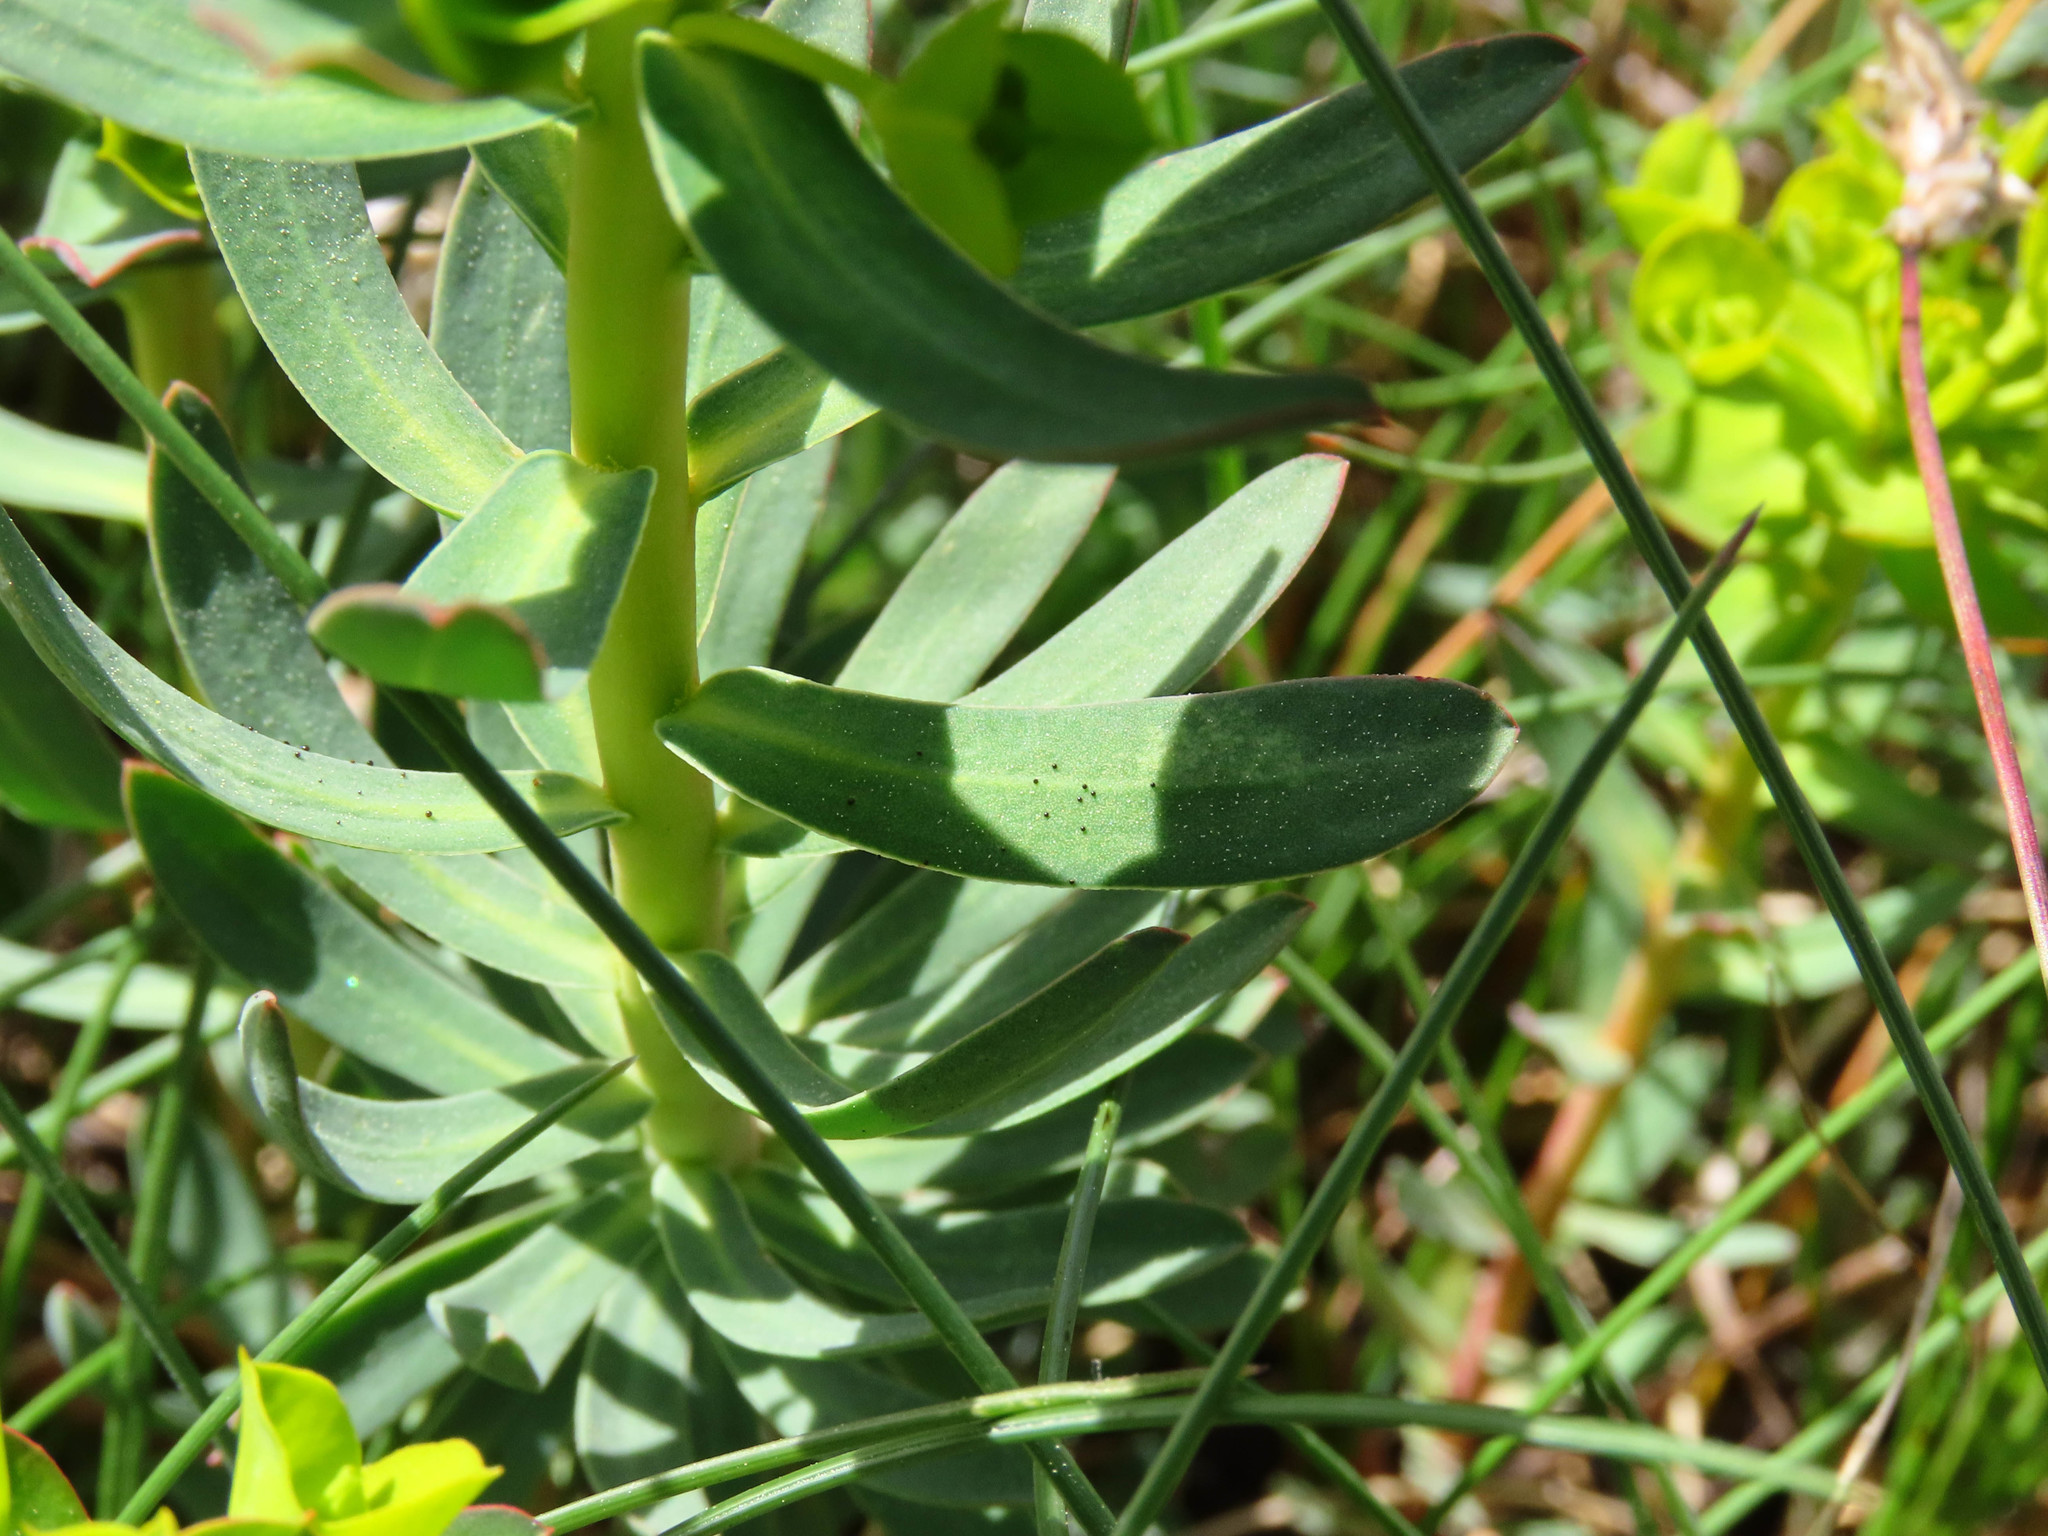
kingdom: Plantae
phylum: Tracheophyta
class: Magnoliopsida
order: Malpighiales
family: Euphorbiaceae
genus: Euphorbia
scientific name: Euphorbia nicaeensis
